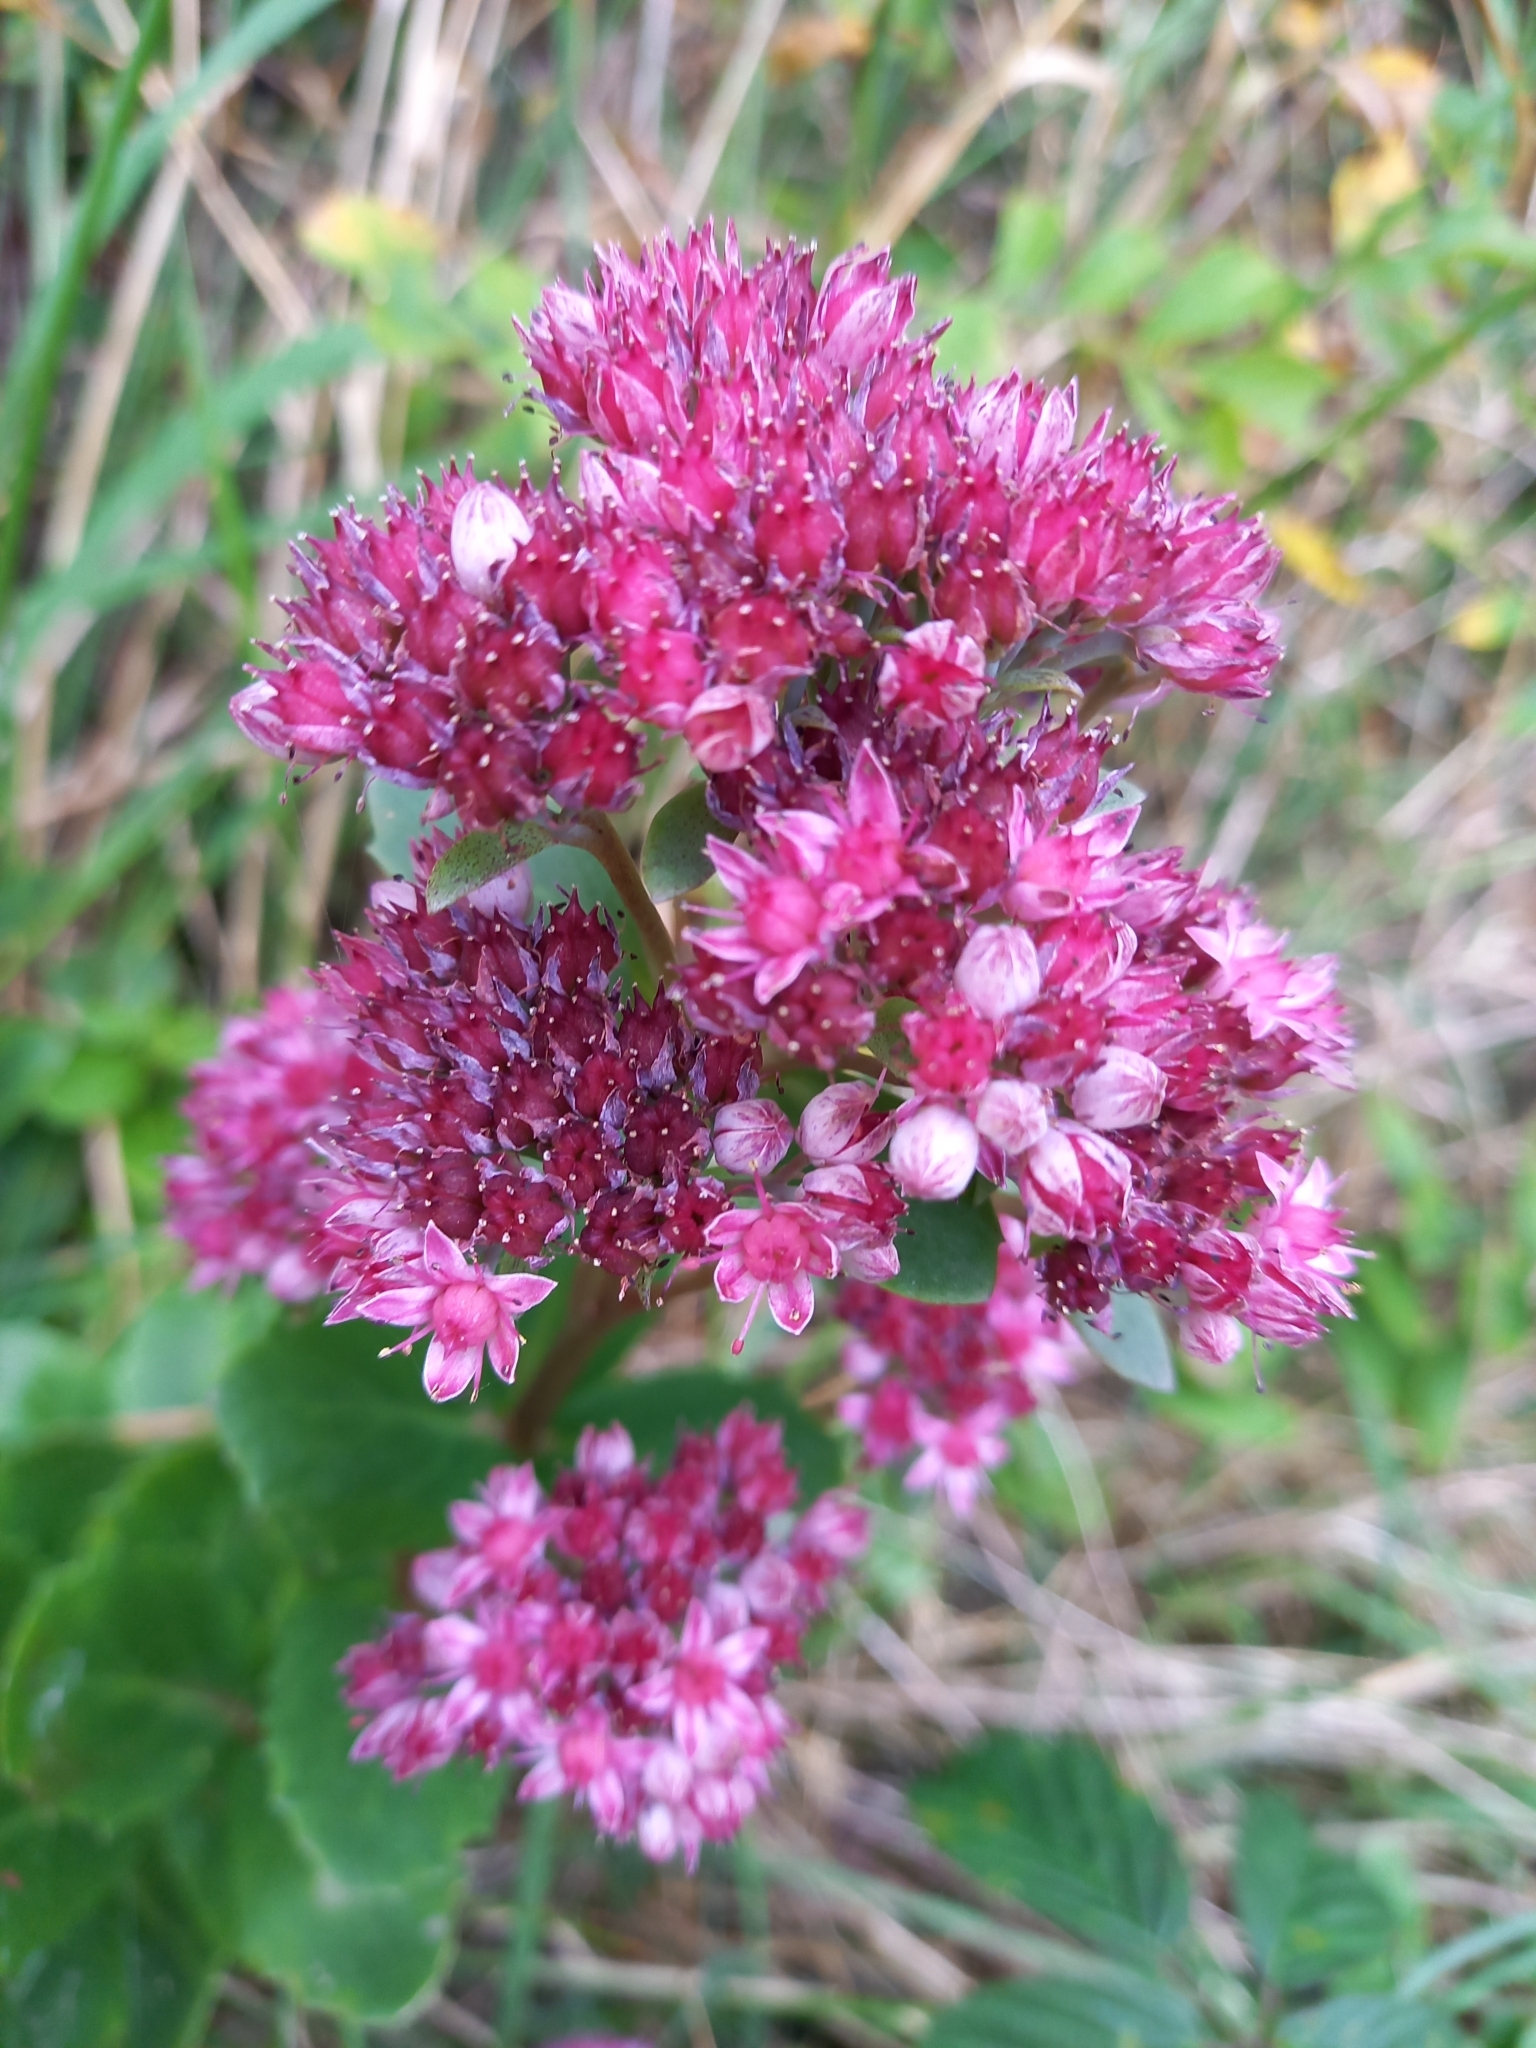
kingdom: Plantae
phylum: Tracheophyta
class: Magnoliopsida
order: Saxifragales
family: Crassulaceae
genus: Hylotelephium
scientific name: Hylotelephium telephium
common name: Live-forever
